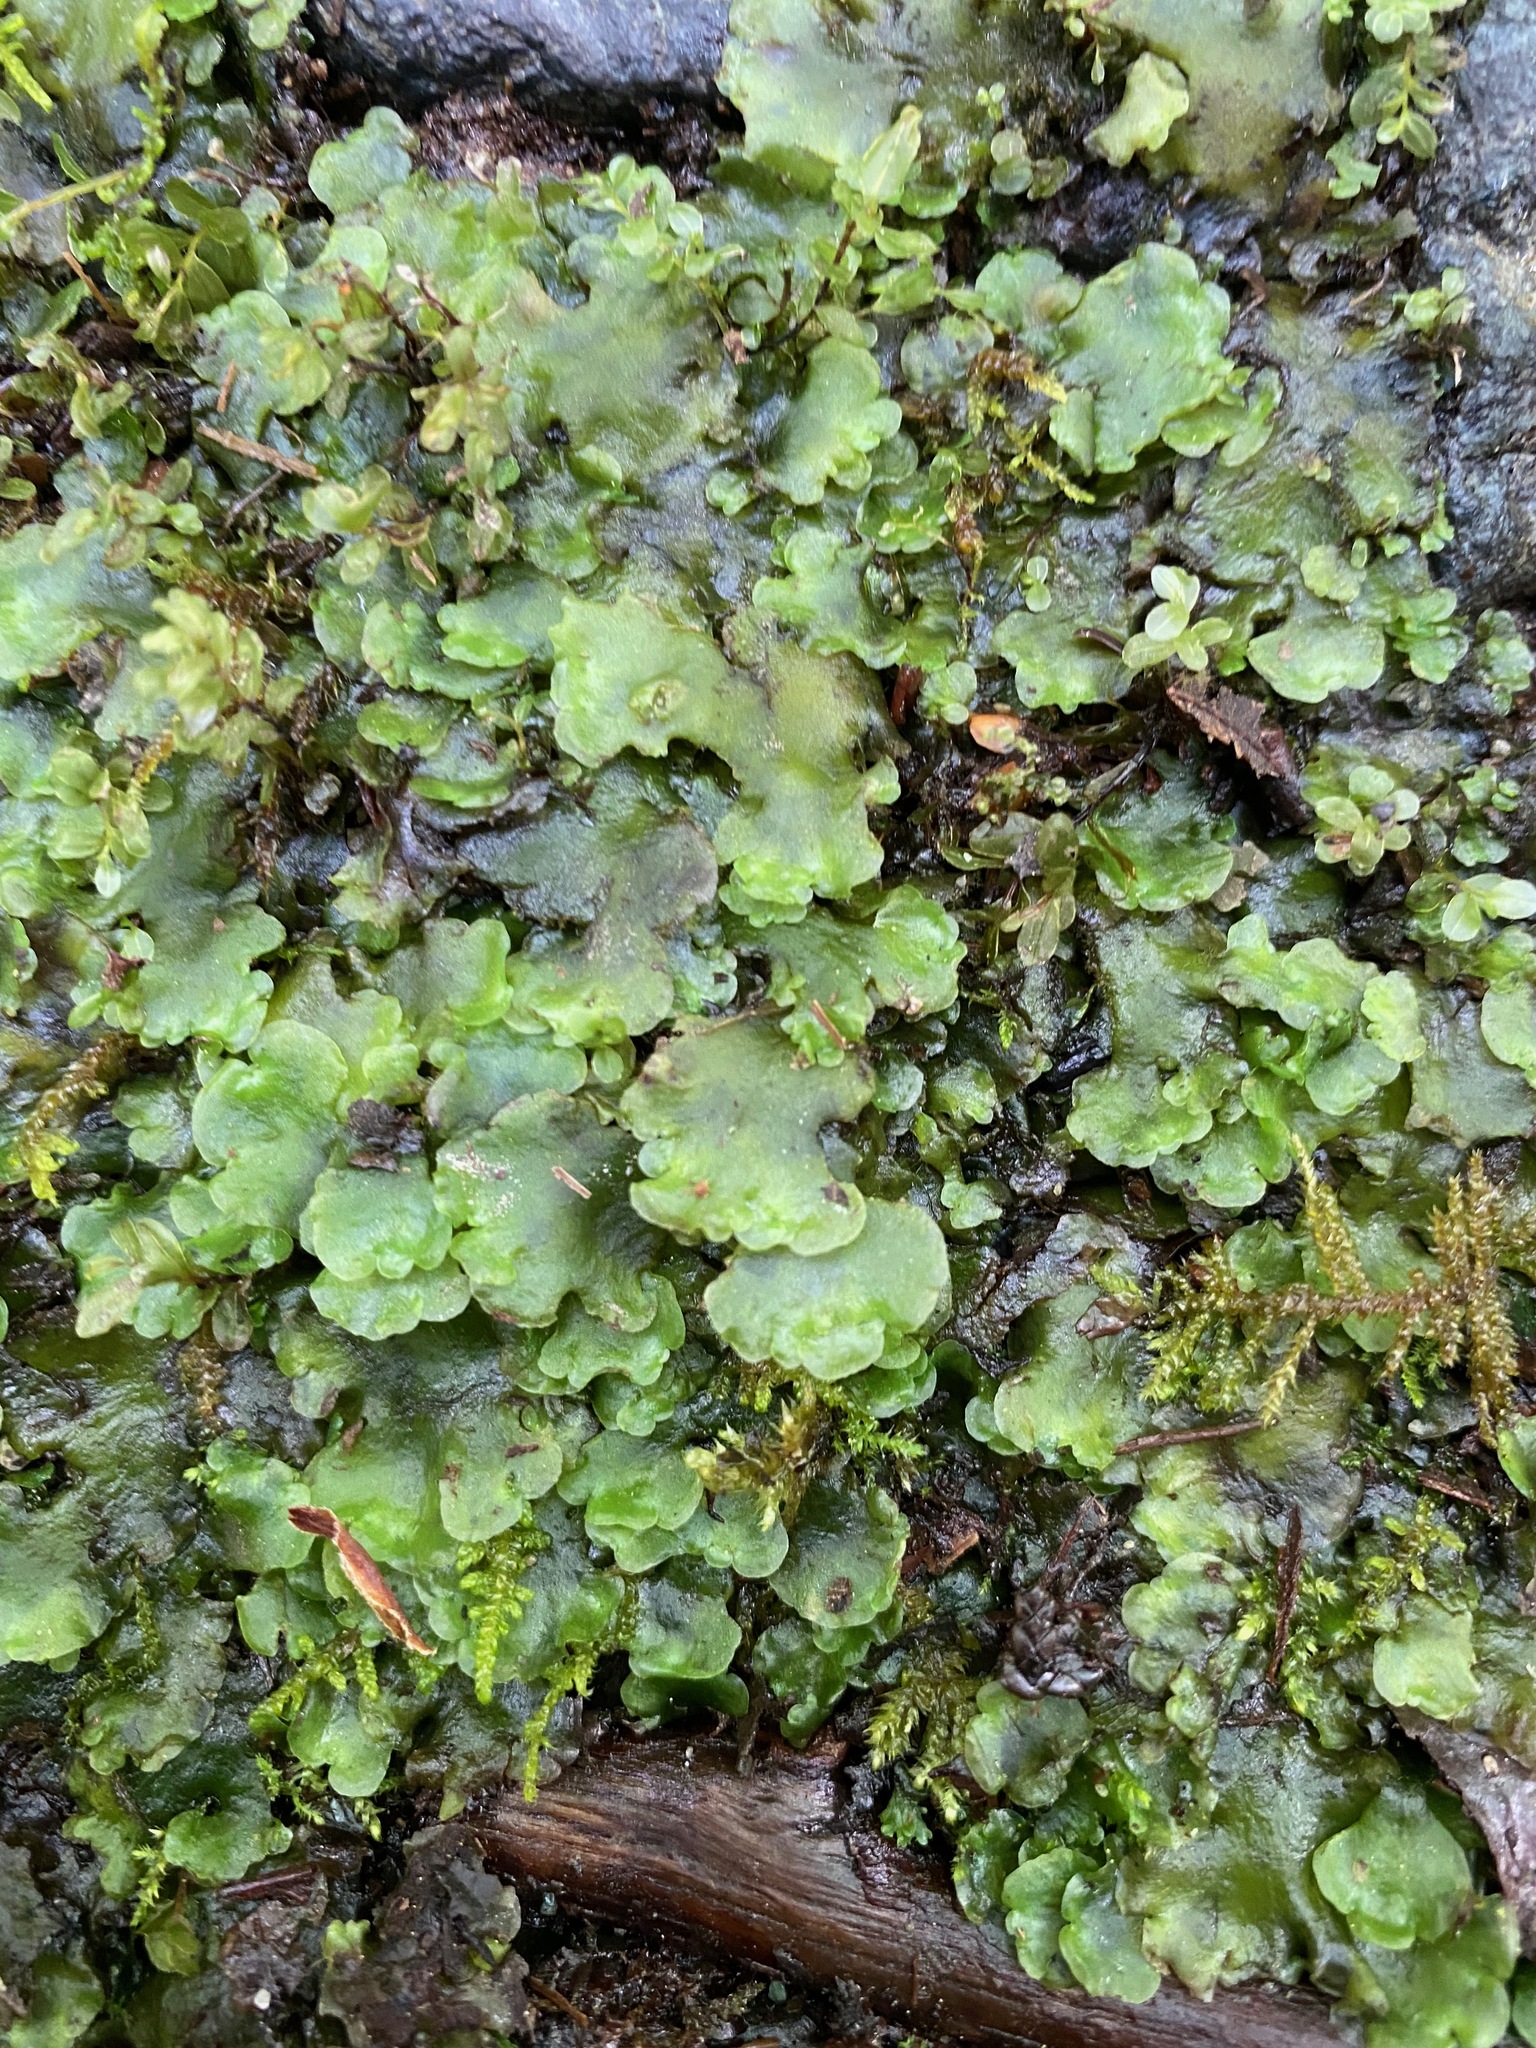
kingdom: Plantae
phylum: Marchantiophyta
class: Jungermanniopsida
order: Pelliales
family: Pelliaceae
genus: Pellia
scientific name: Pellia neesiana
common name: Nees  pellia
